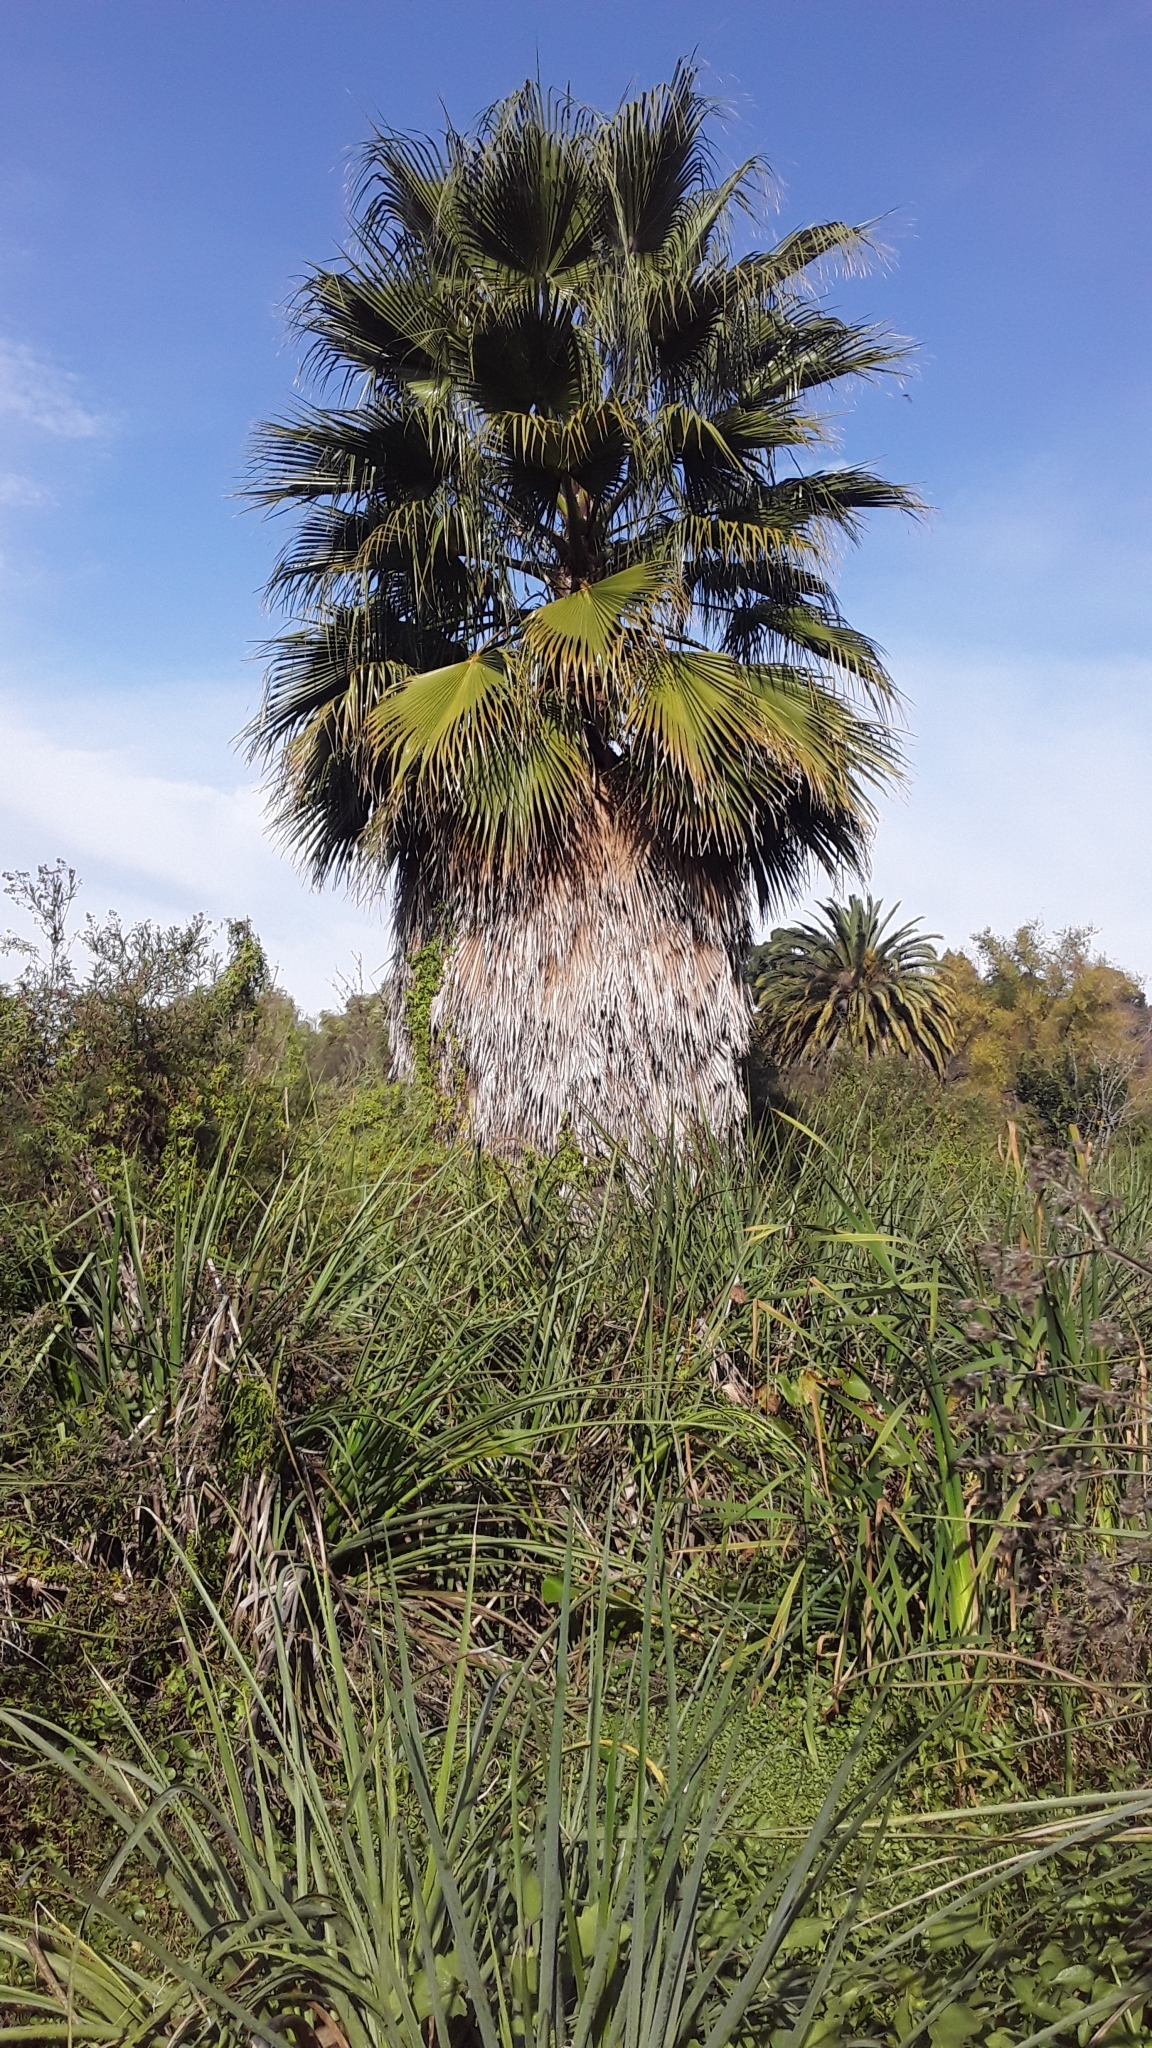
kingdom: Plantae
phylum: Tracheophyta
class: Liliopsida
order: Arecales
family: Arecaceae
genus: Washingtonia
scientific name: Washingtonia robusta
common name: Mexican fan palm
